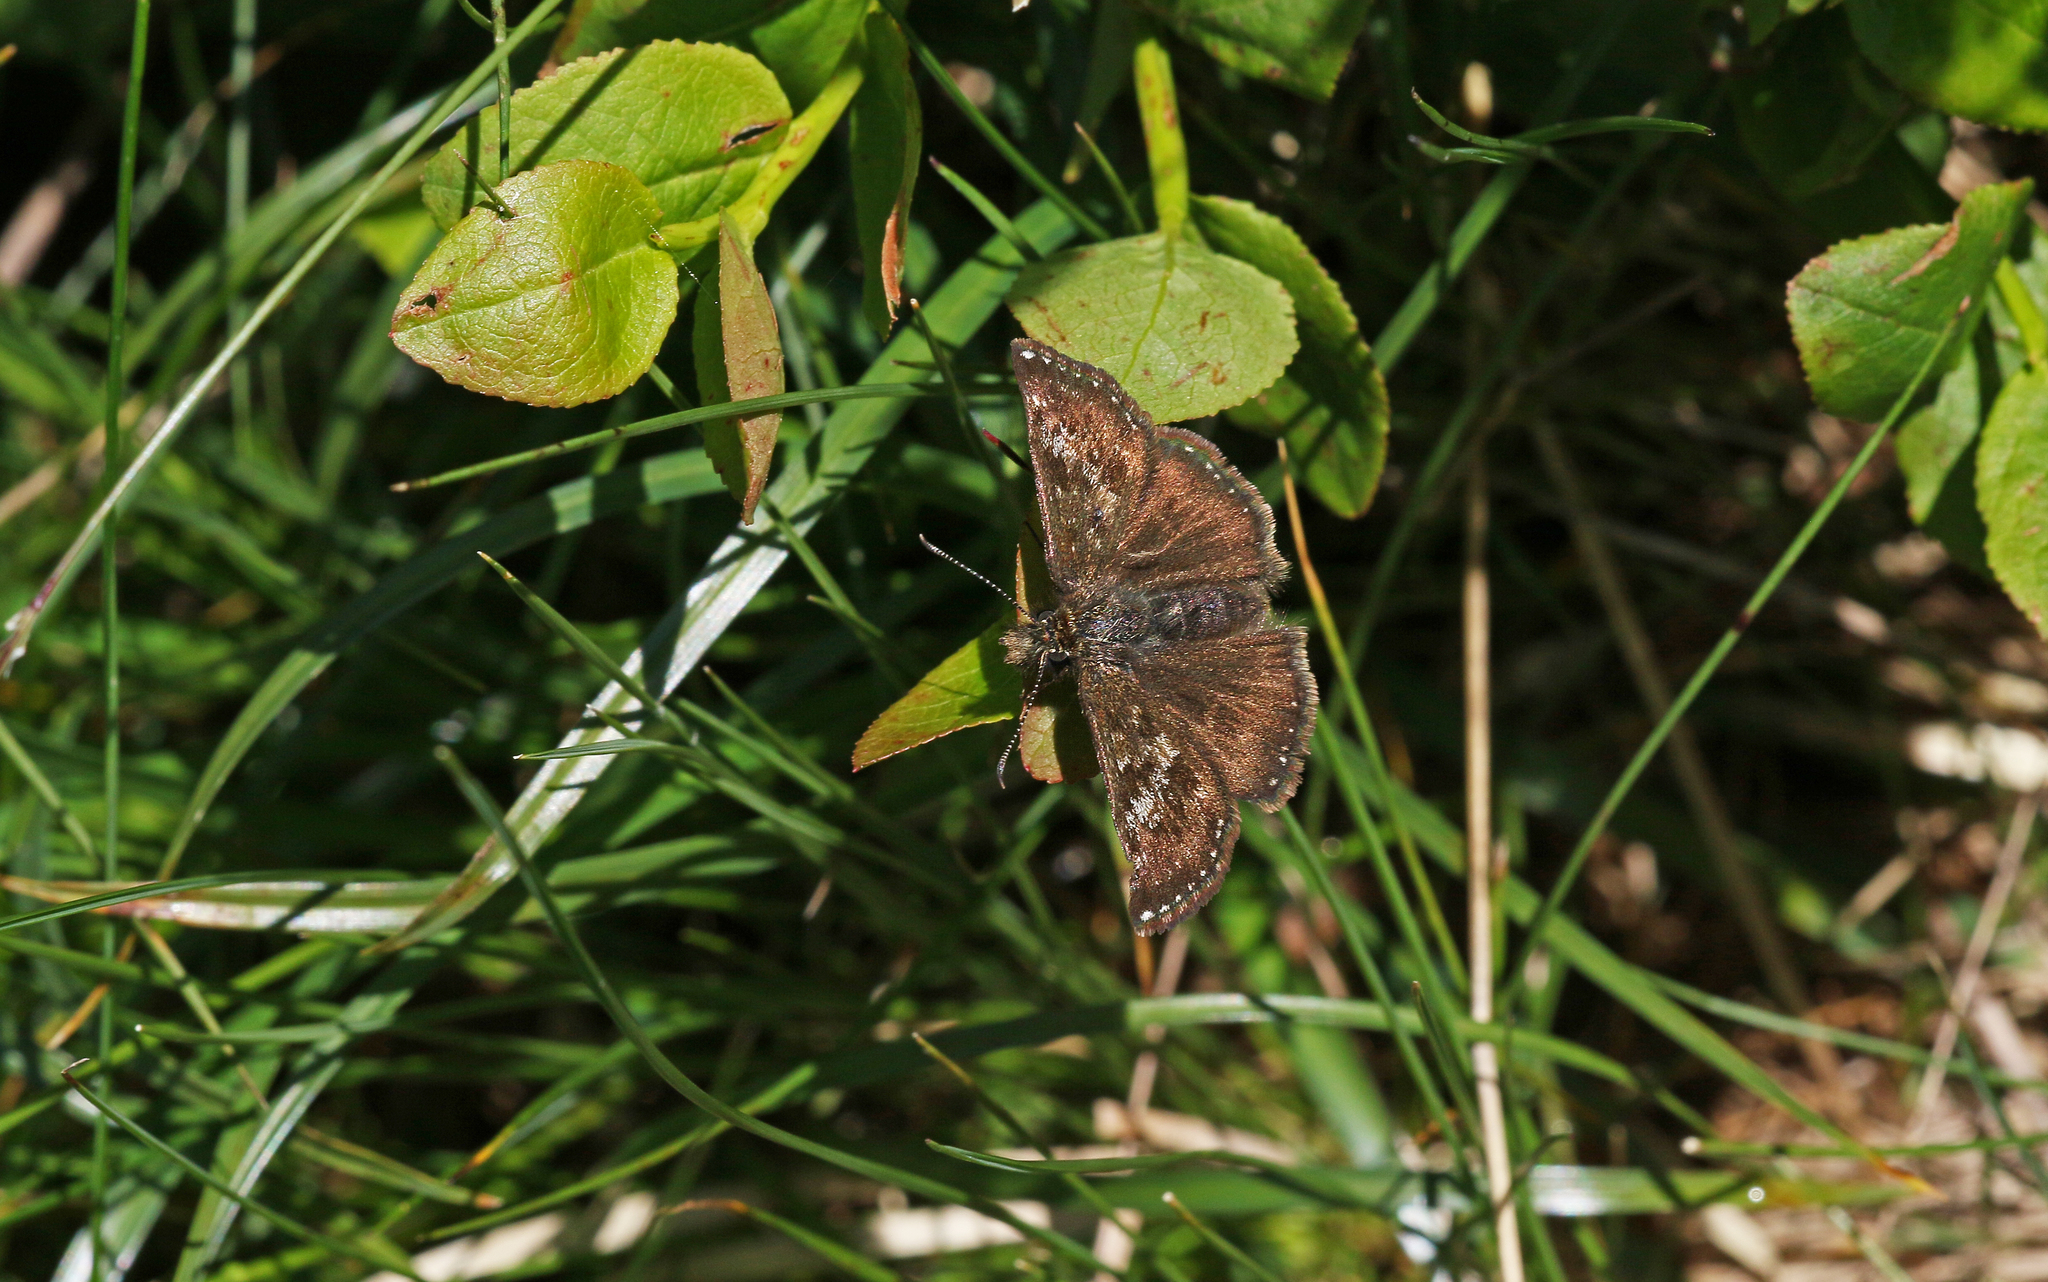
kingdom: Animalia
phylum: Arthropoda
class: Insecta
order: Lepidoptera
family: Hesperiidae
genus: Erynnis
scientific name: Erynnis tages
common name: Dingy skipper
